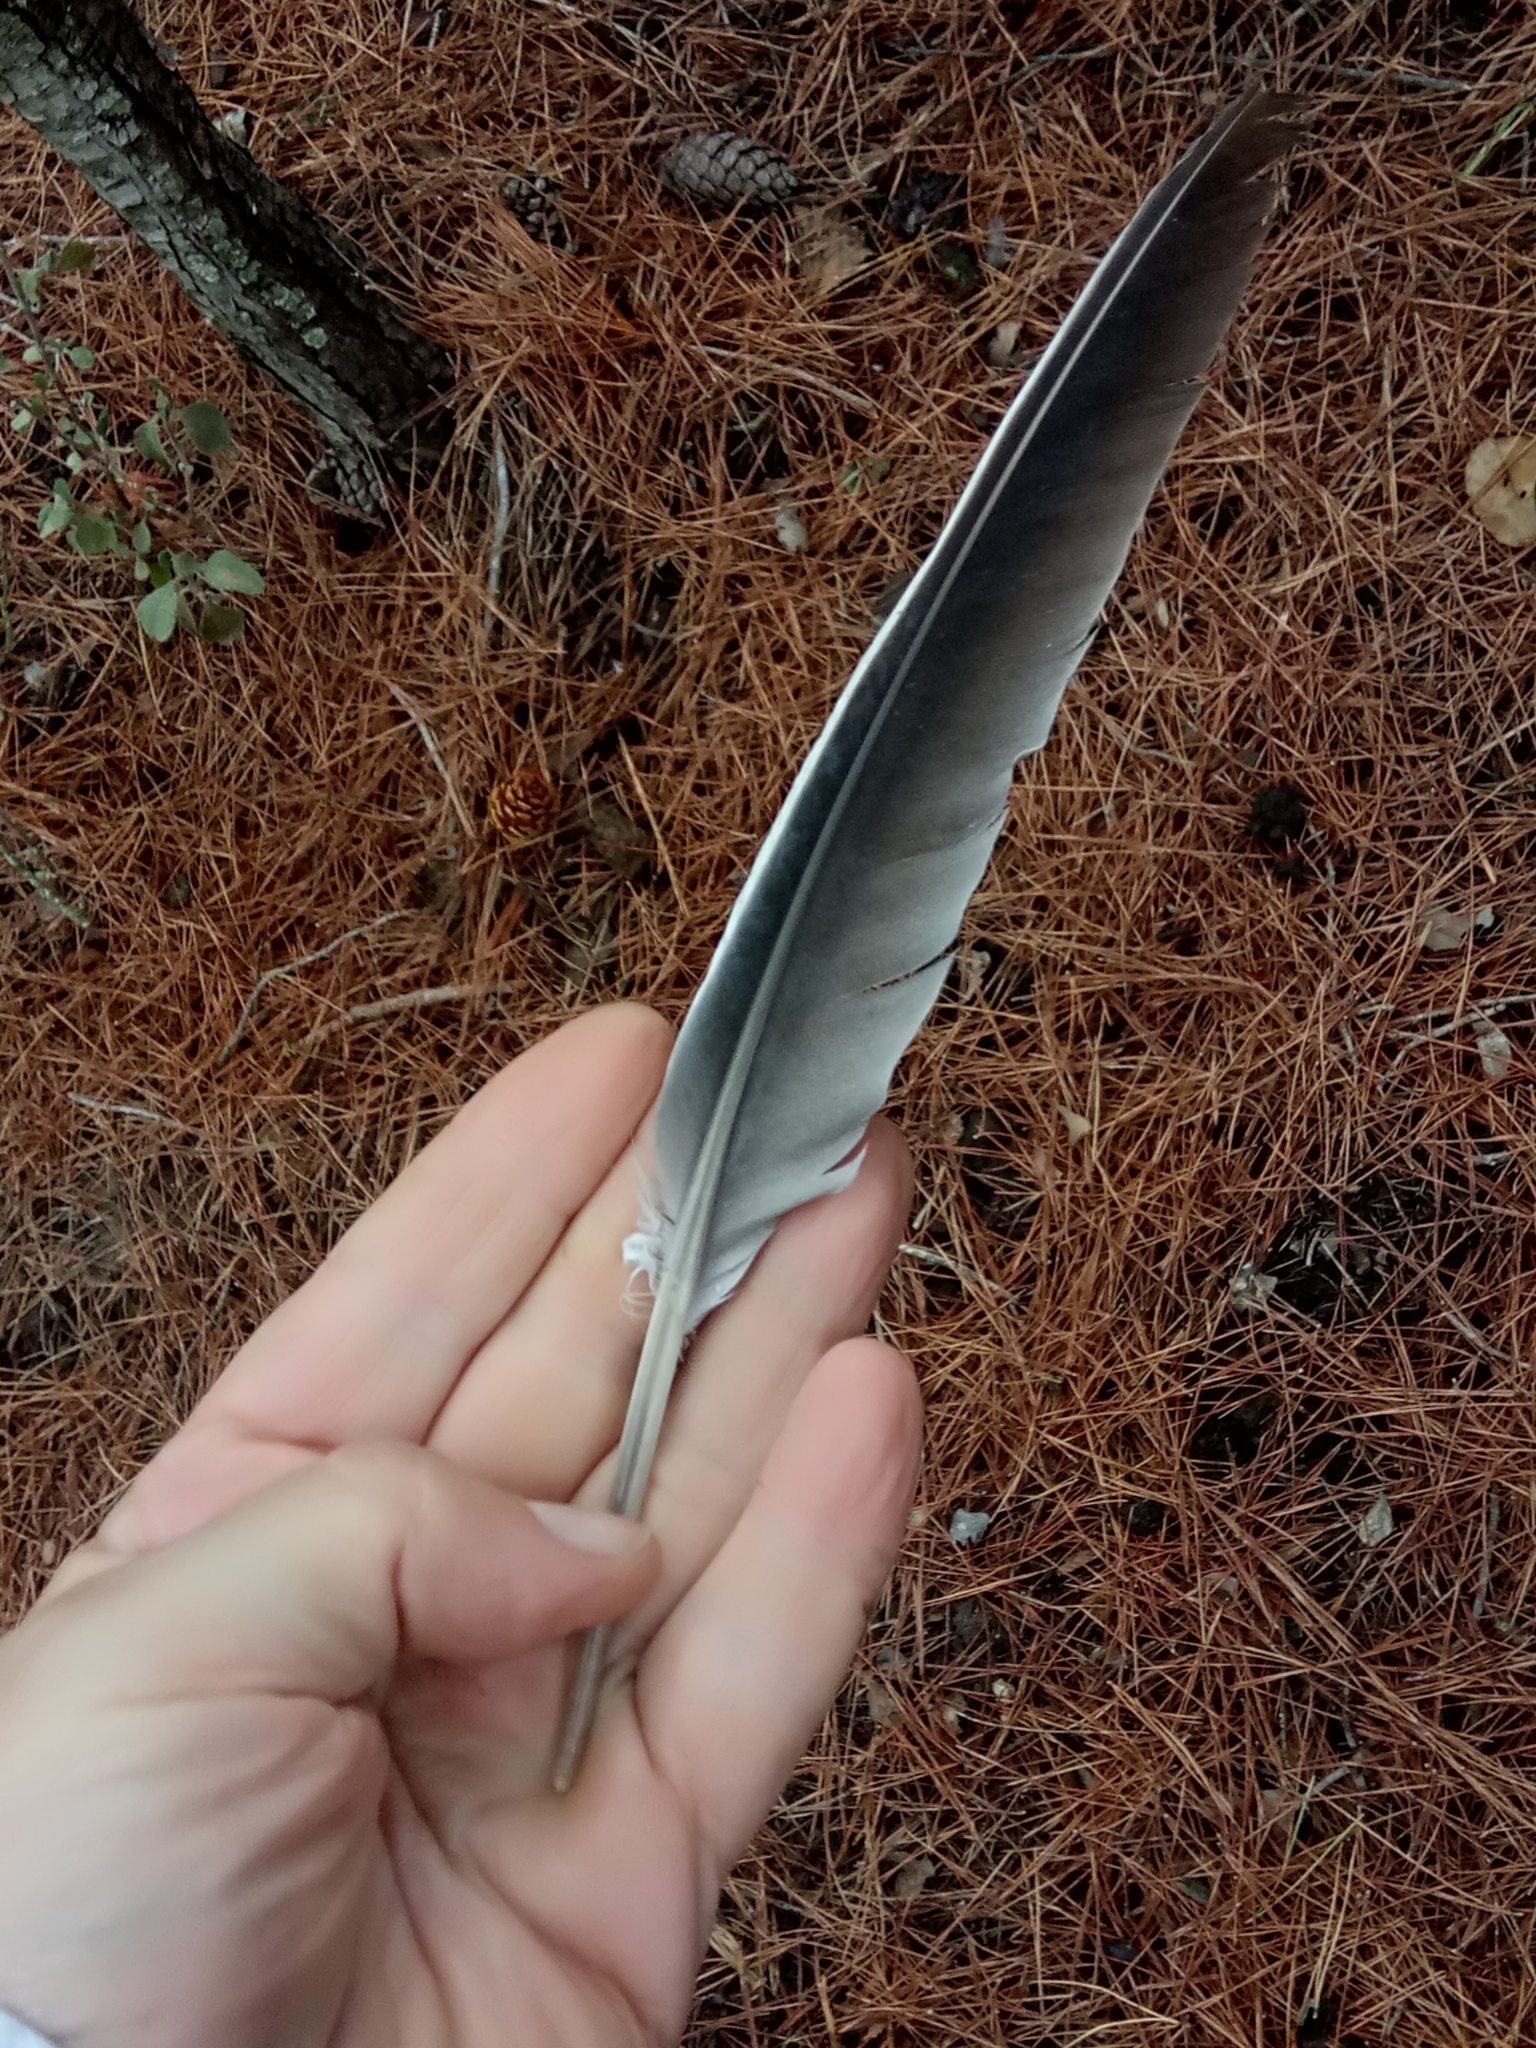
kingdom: Animalia
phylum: Chordata
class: Aves
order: Columbiformes
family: Columbidae
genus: Columba
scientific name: Columba palumbus
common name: Common wood pigeon
